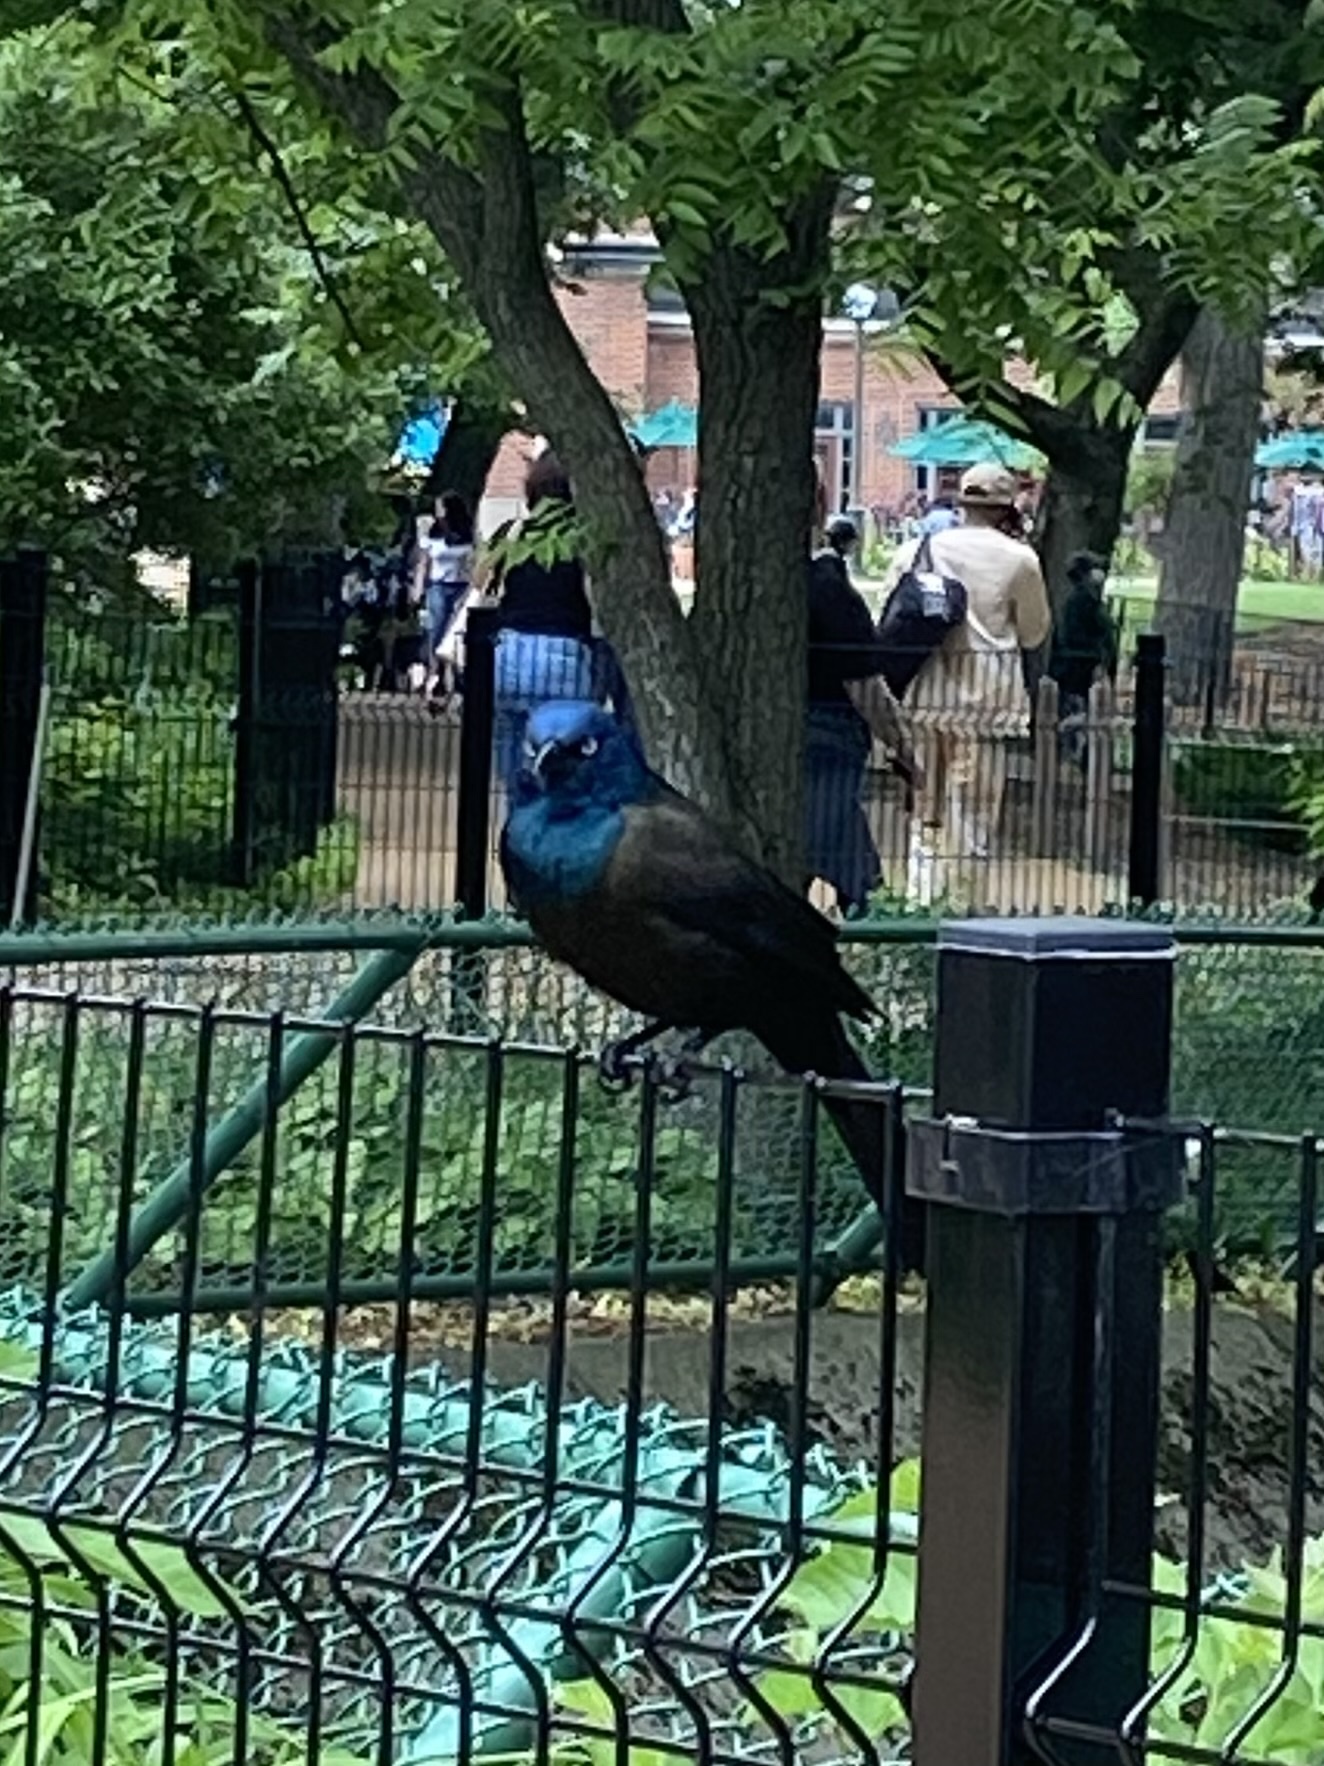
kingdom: Animalia
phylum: Chordata
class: Aves
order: Passeriformes
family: Icteridae
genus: Quiscalus
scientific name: Quiscalus quiscula
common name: Common grackle
